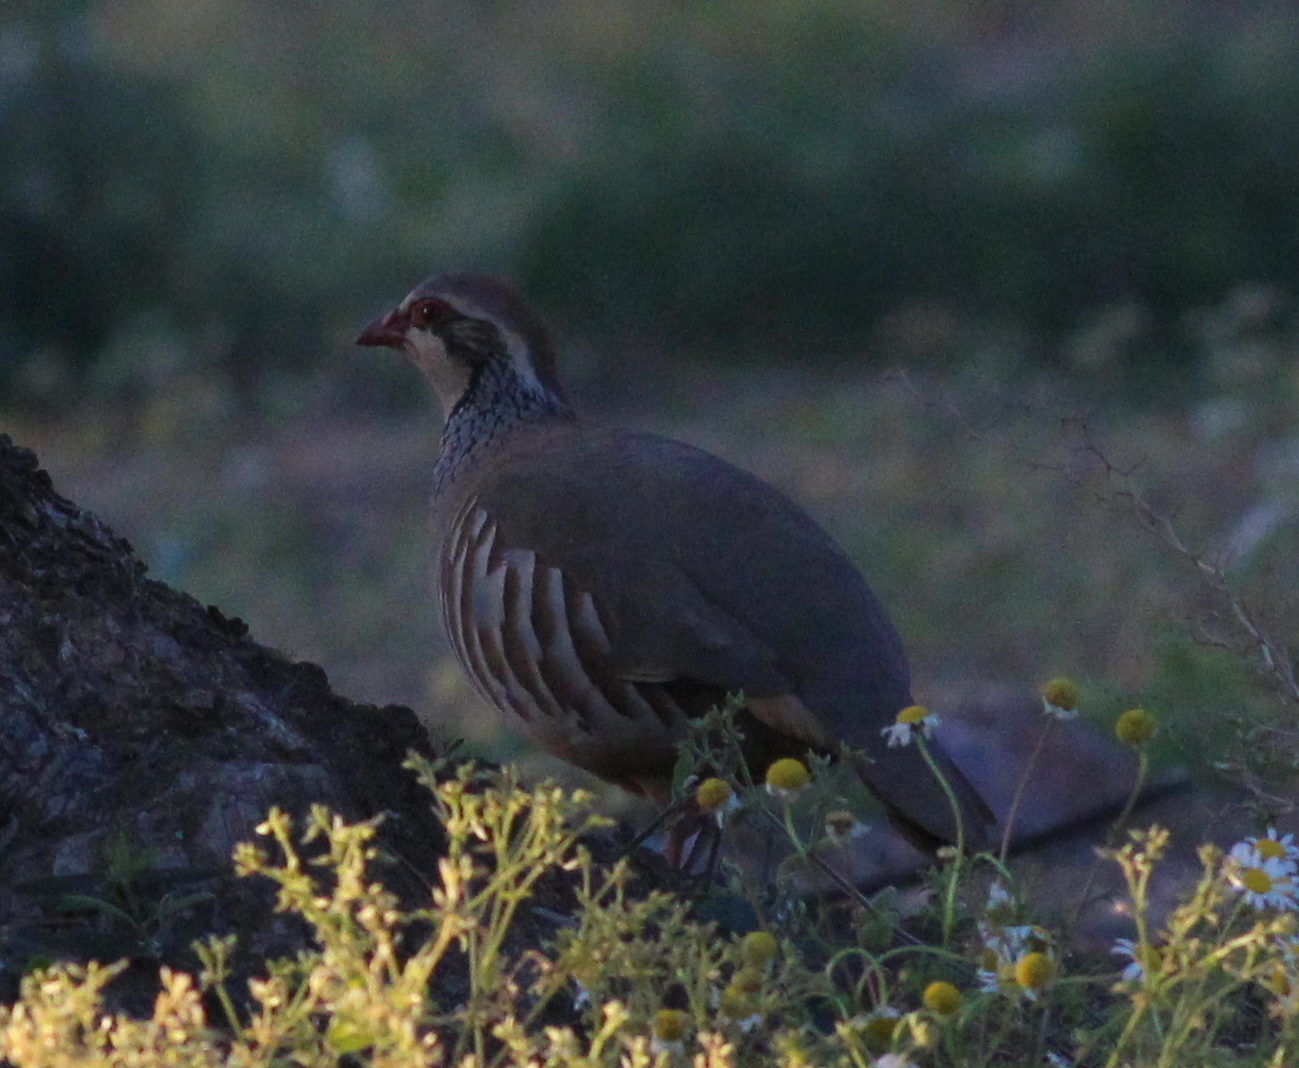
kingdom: Animalia
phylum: Chordata
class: Aves
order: Galliformes
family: Phasianidae
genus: Alectoris
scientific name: Alectoris rufa
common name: Red-legged partridge
